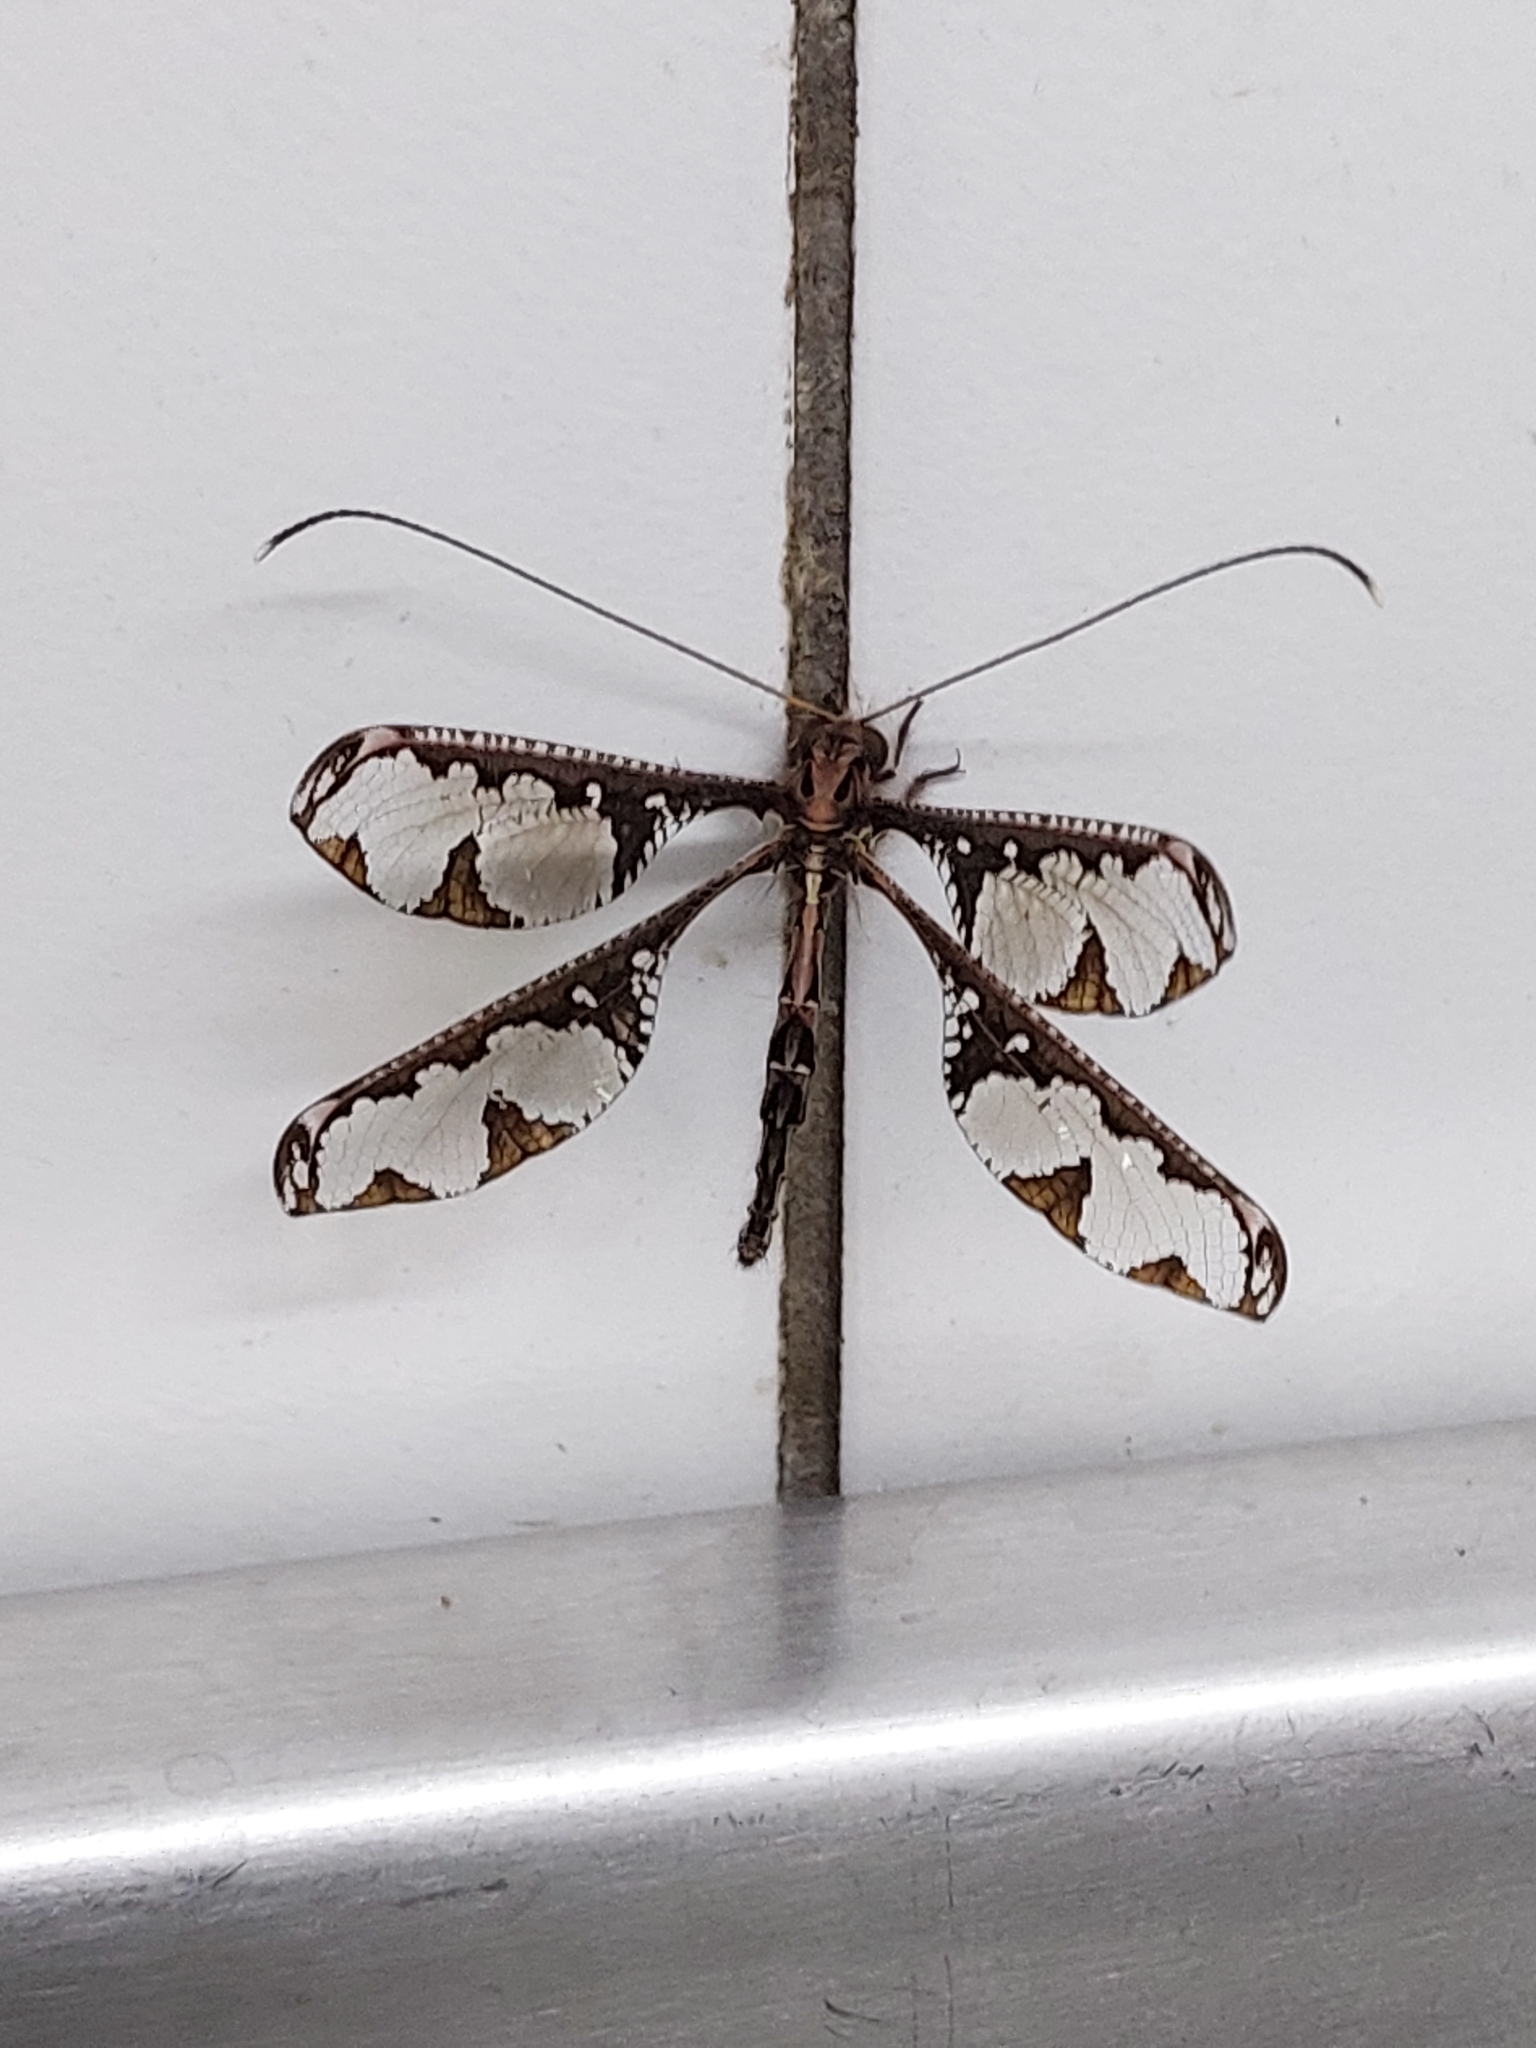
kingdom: Animalia
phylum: Arthropoda
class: Insecta
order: Neuroptera
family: Ascalaphidae
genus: Tmesibasis
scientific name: Tmesibasis lacerata
